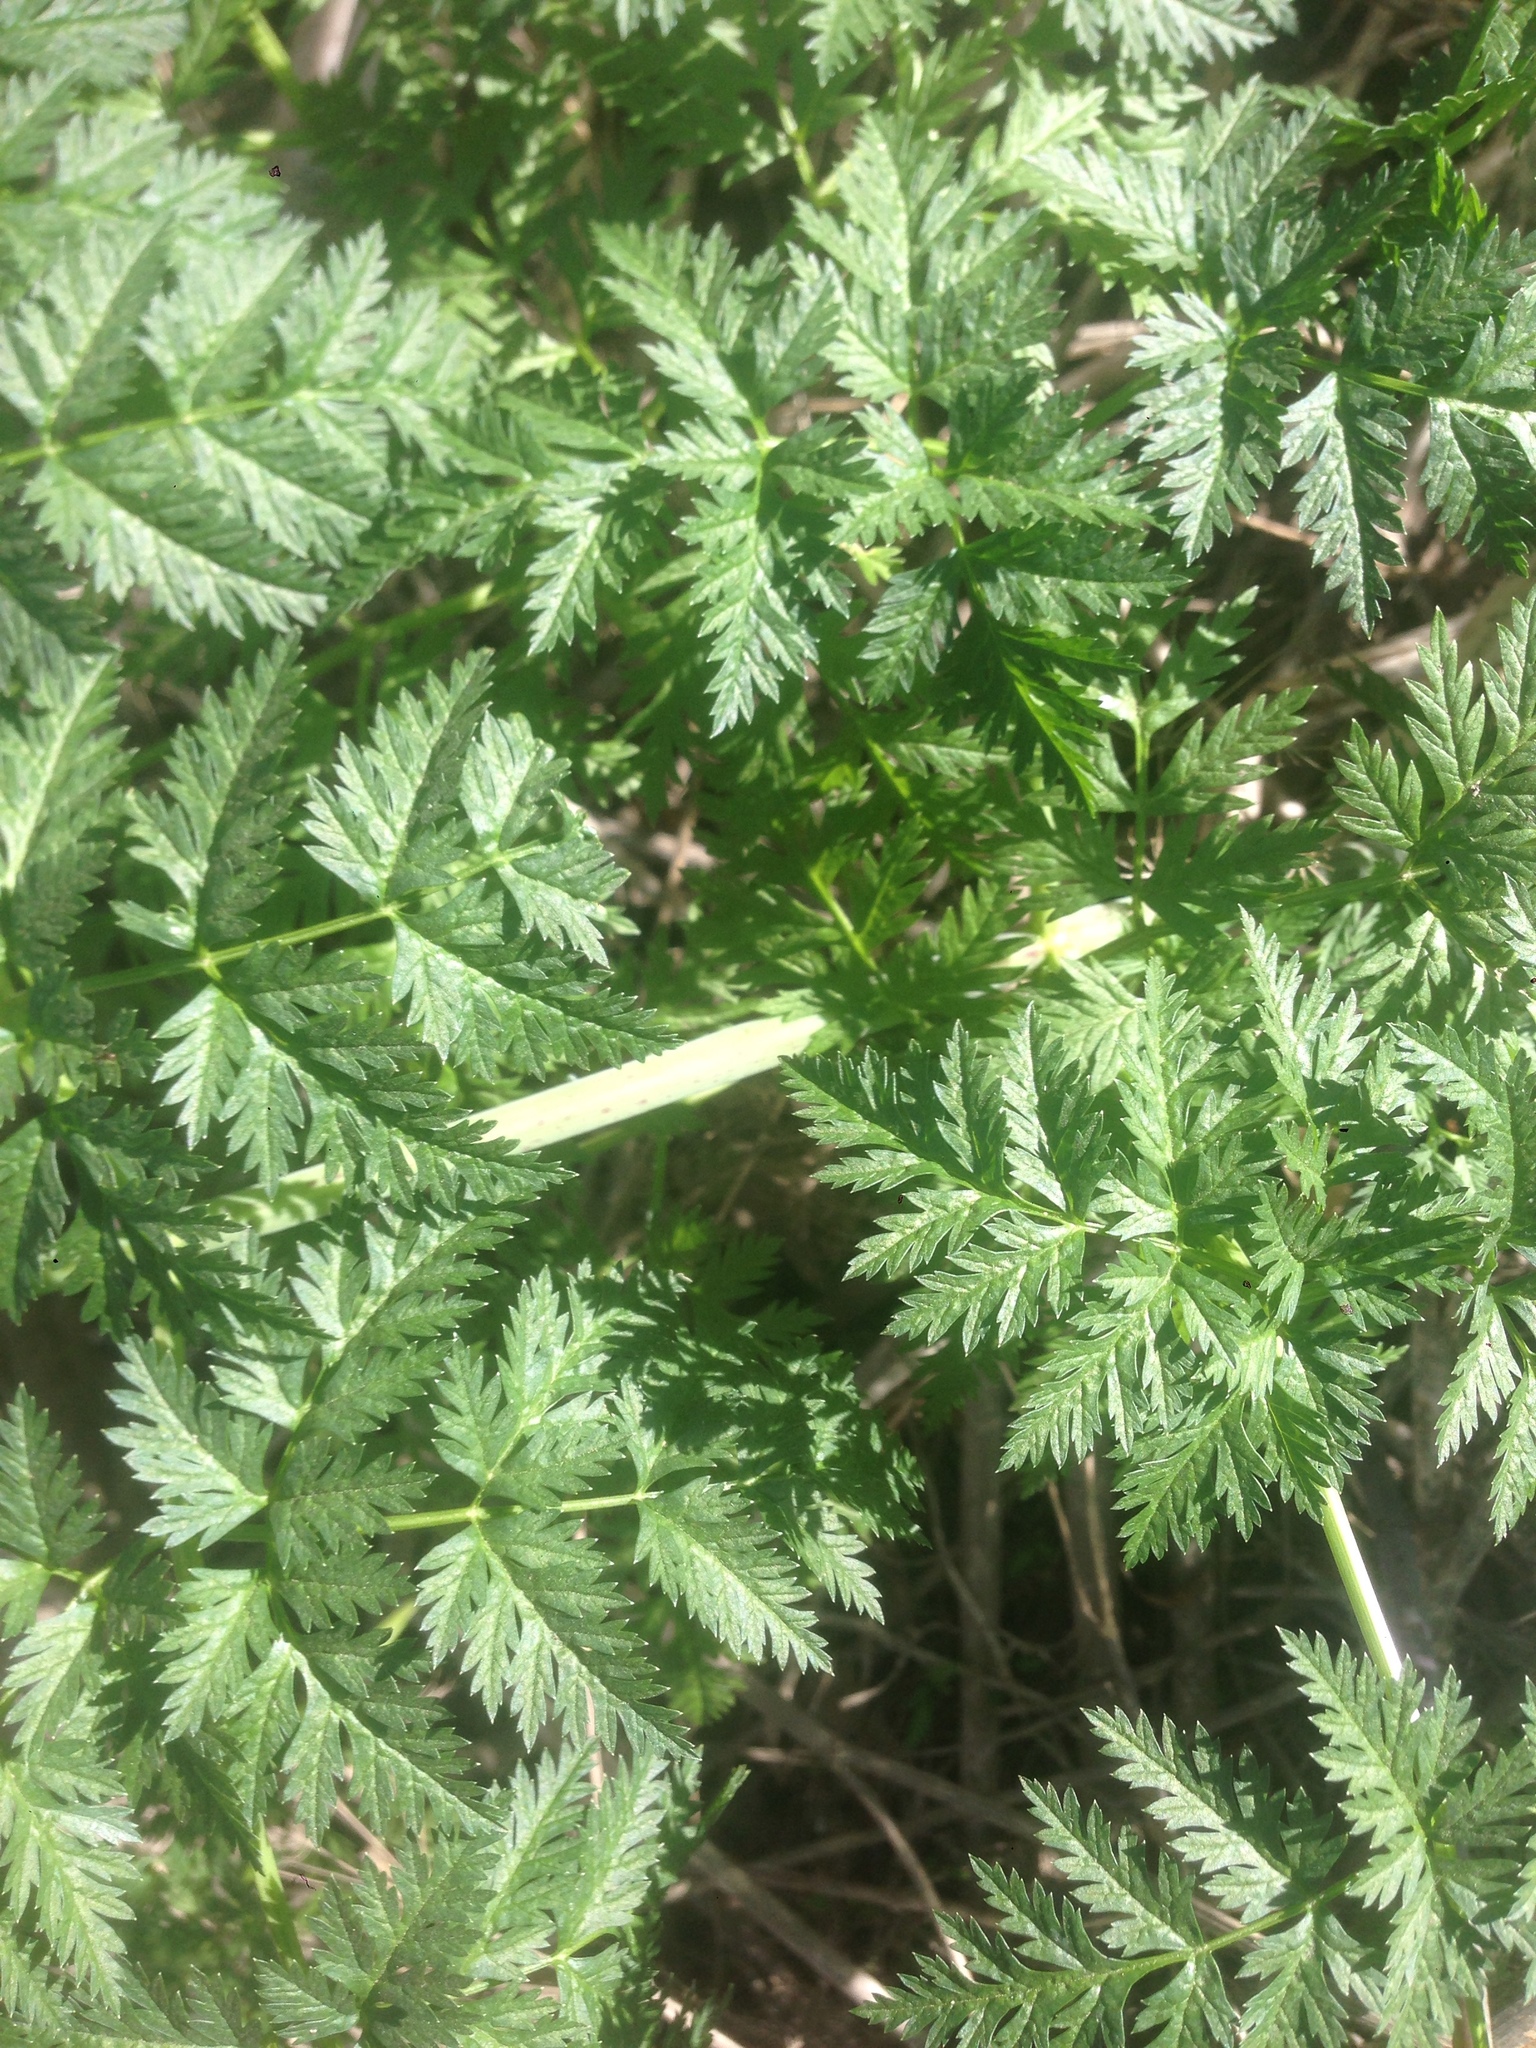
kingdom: Plantae
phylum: Tracheophyta
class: Magnoliopsida
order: Apiales
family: Apiaceae
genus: Conium
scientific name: Conium maculatum
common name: Hemlock
